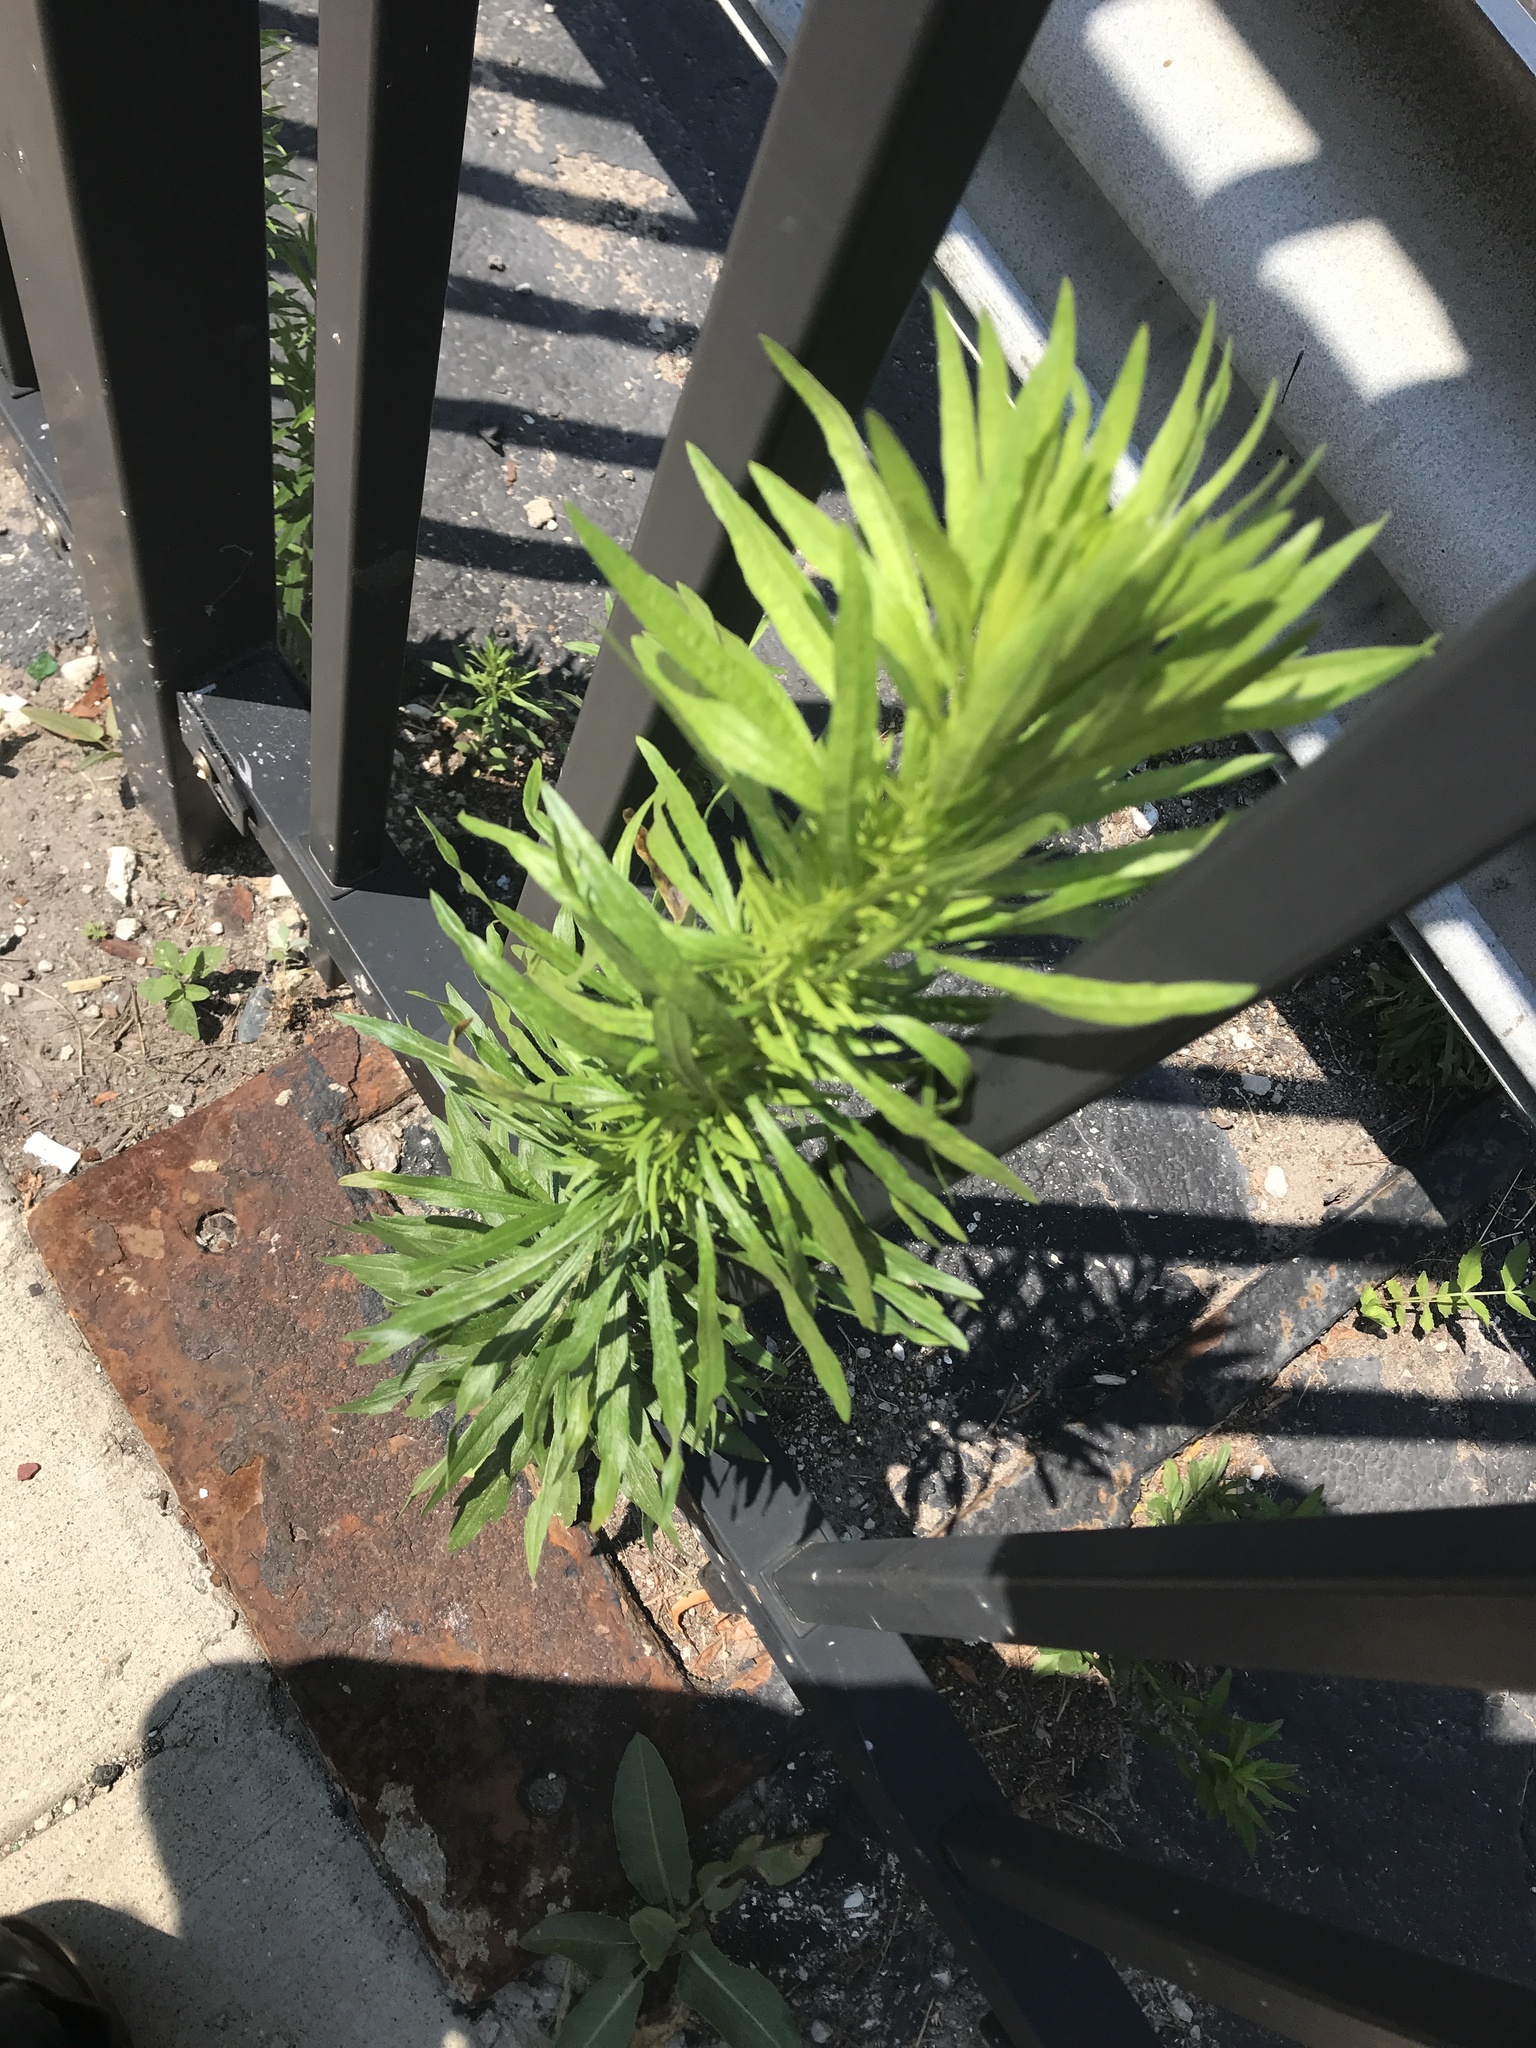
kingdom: Plantae
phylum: Tracheophyta
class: Magnoliopsida
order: Asterales
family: Asteraceae
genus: Erigeron
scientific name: Erigeron canadensis
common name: Canadian fleabane
